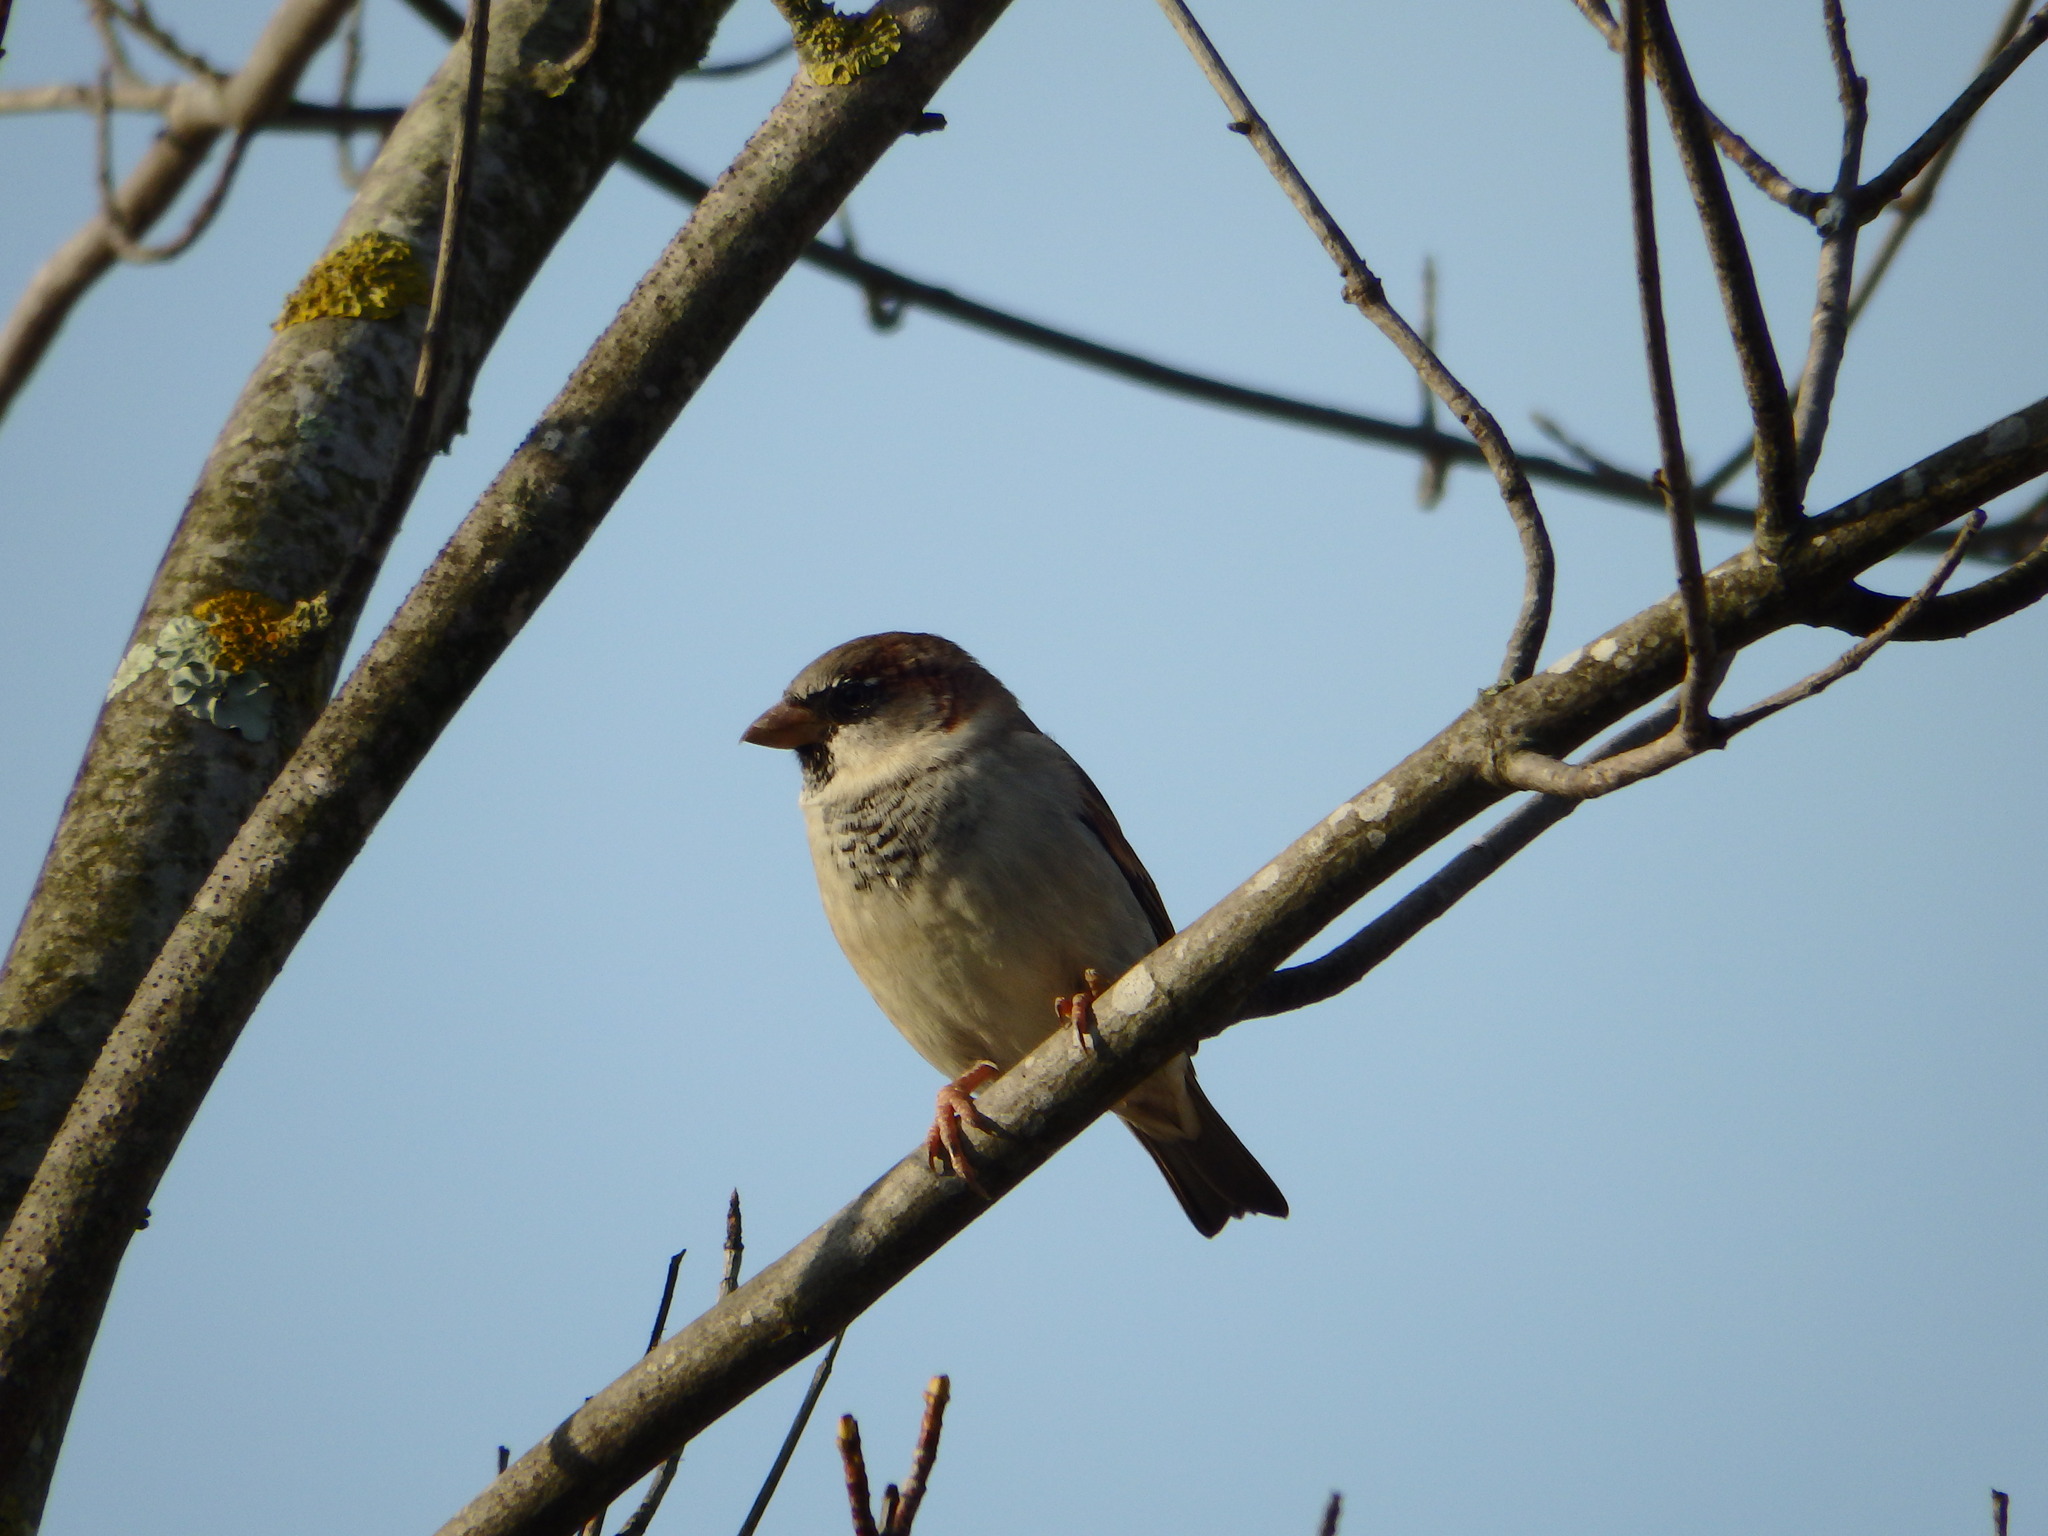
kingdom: Animalia
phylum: Chordata
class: Aves
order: Passeriformes
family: Passeridae
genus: Passer
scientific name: Passer domesticus
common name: House sparrow
